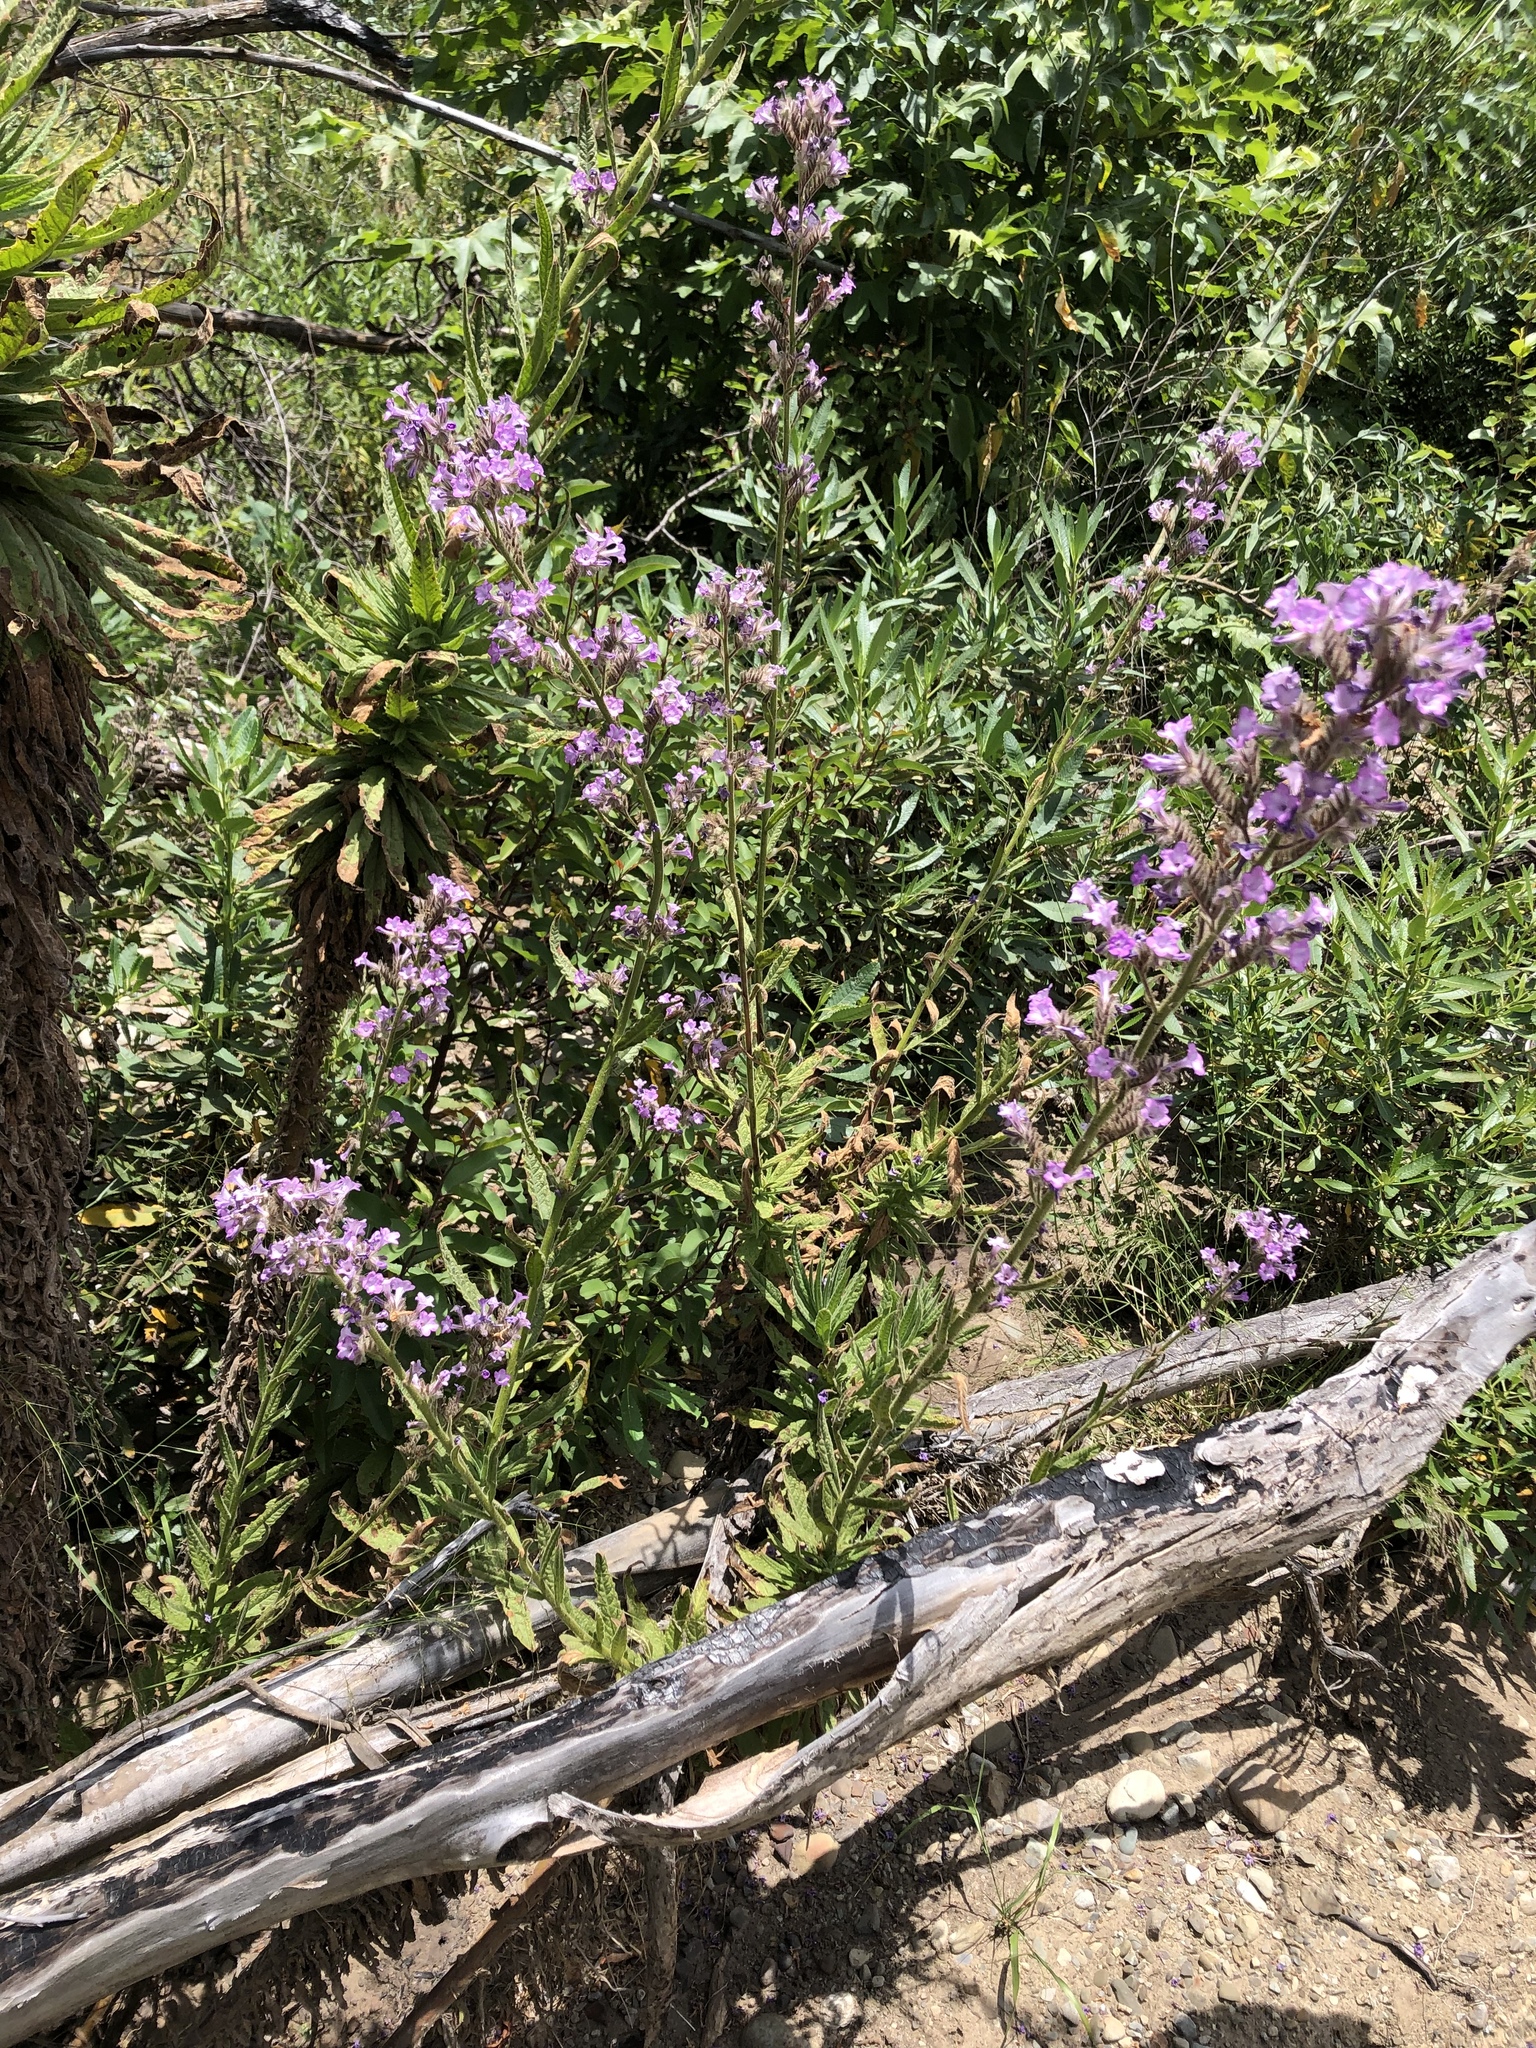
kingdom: Plantae
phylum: Tracheophyta
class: Magnoliopsida
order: Boraginales
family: Namaceae
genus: Turricula
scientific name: Turricula parryi
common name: Poodle-dog-bush
